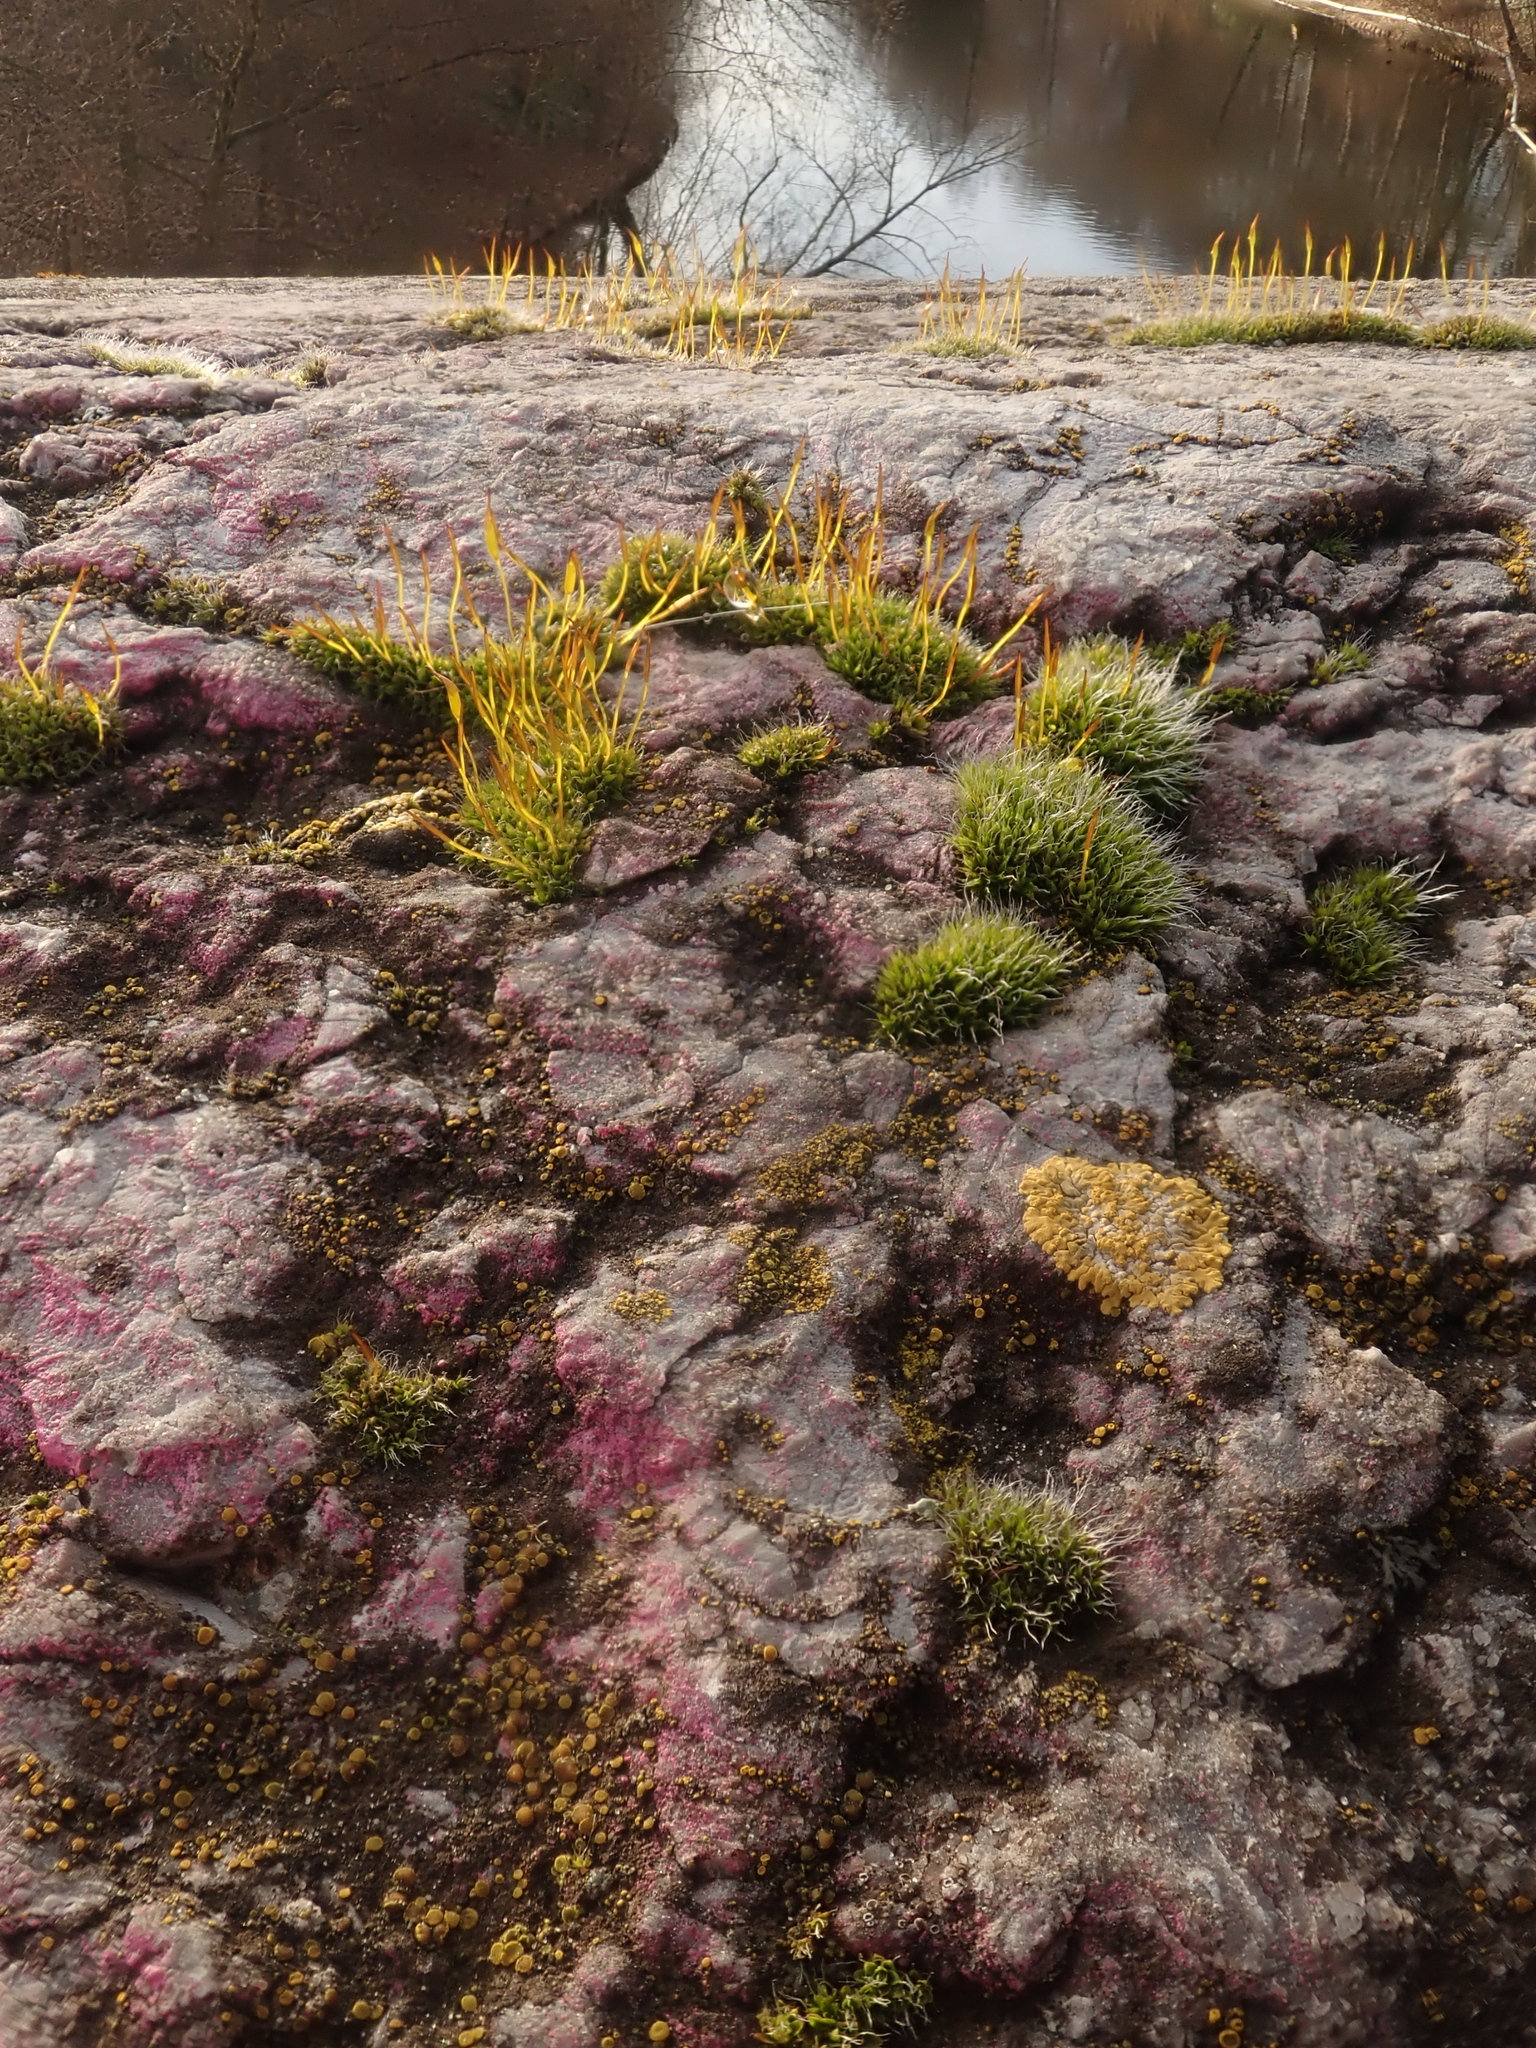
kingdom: Plantae
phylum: Bryophyta
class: Bryopsida
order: Pottiales
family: Pottiaceae
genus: Tortula
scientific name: Tortula muralis
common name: Wall screw-moss
